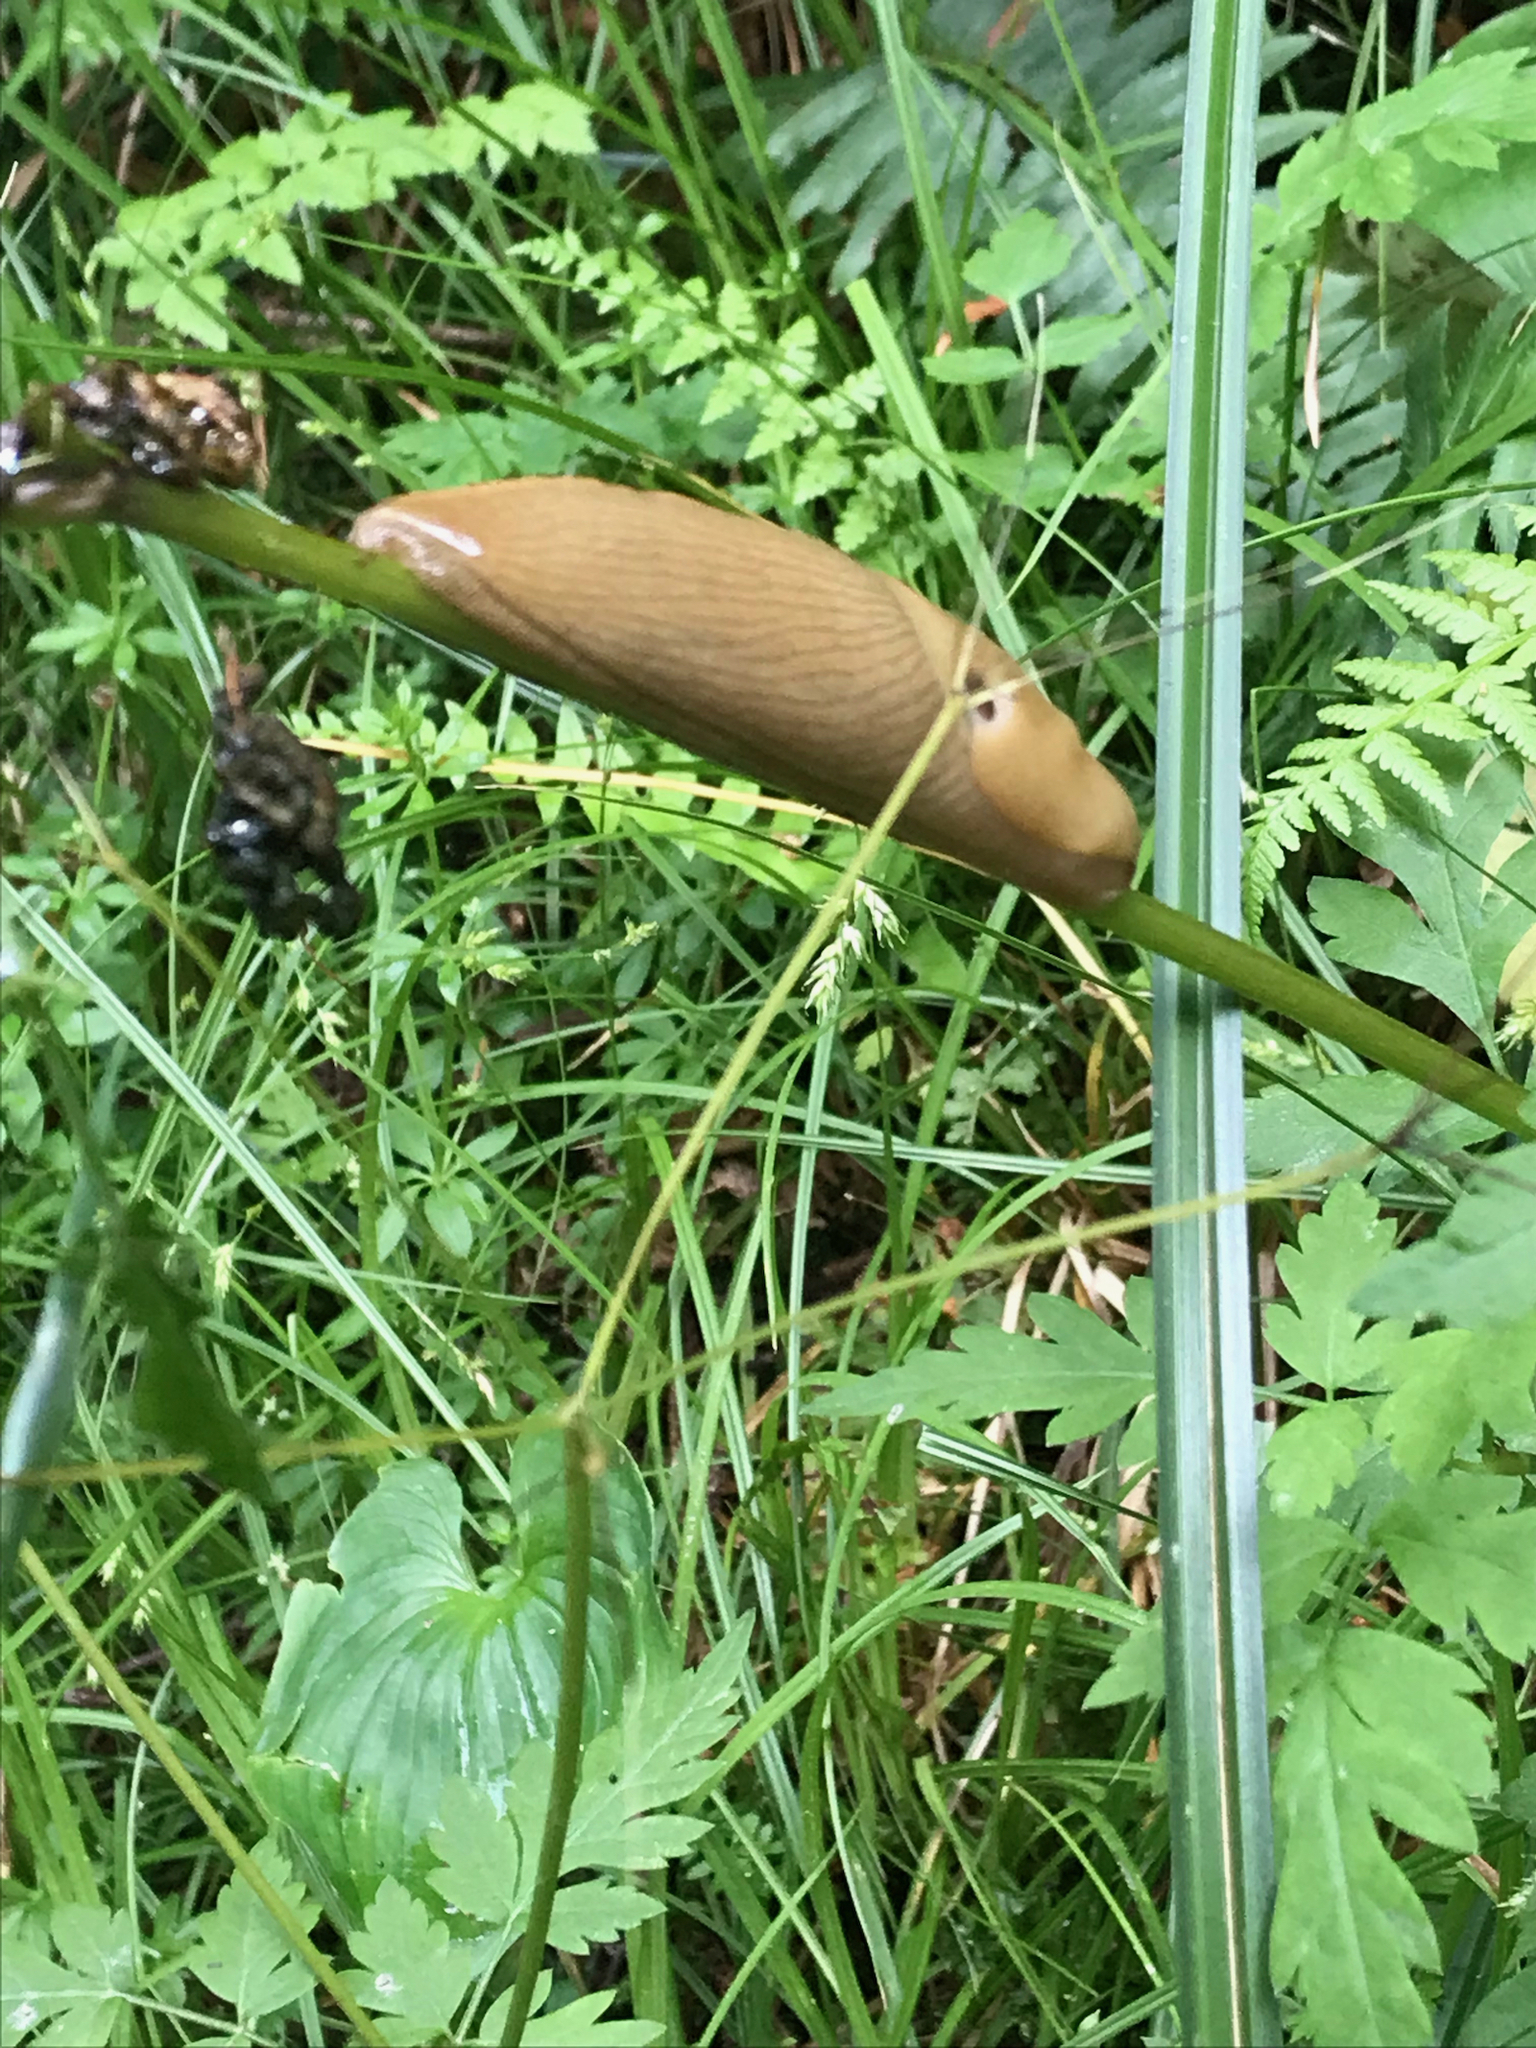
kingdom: Animalia
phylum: Mollusca
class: Gastropoda
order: Stylommatophora
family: Ariolimacidae
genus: Ariolimax
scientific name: Ariolimax columbianus
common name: Pacific banana slug
